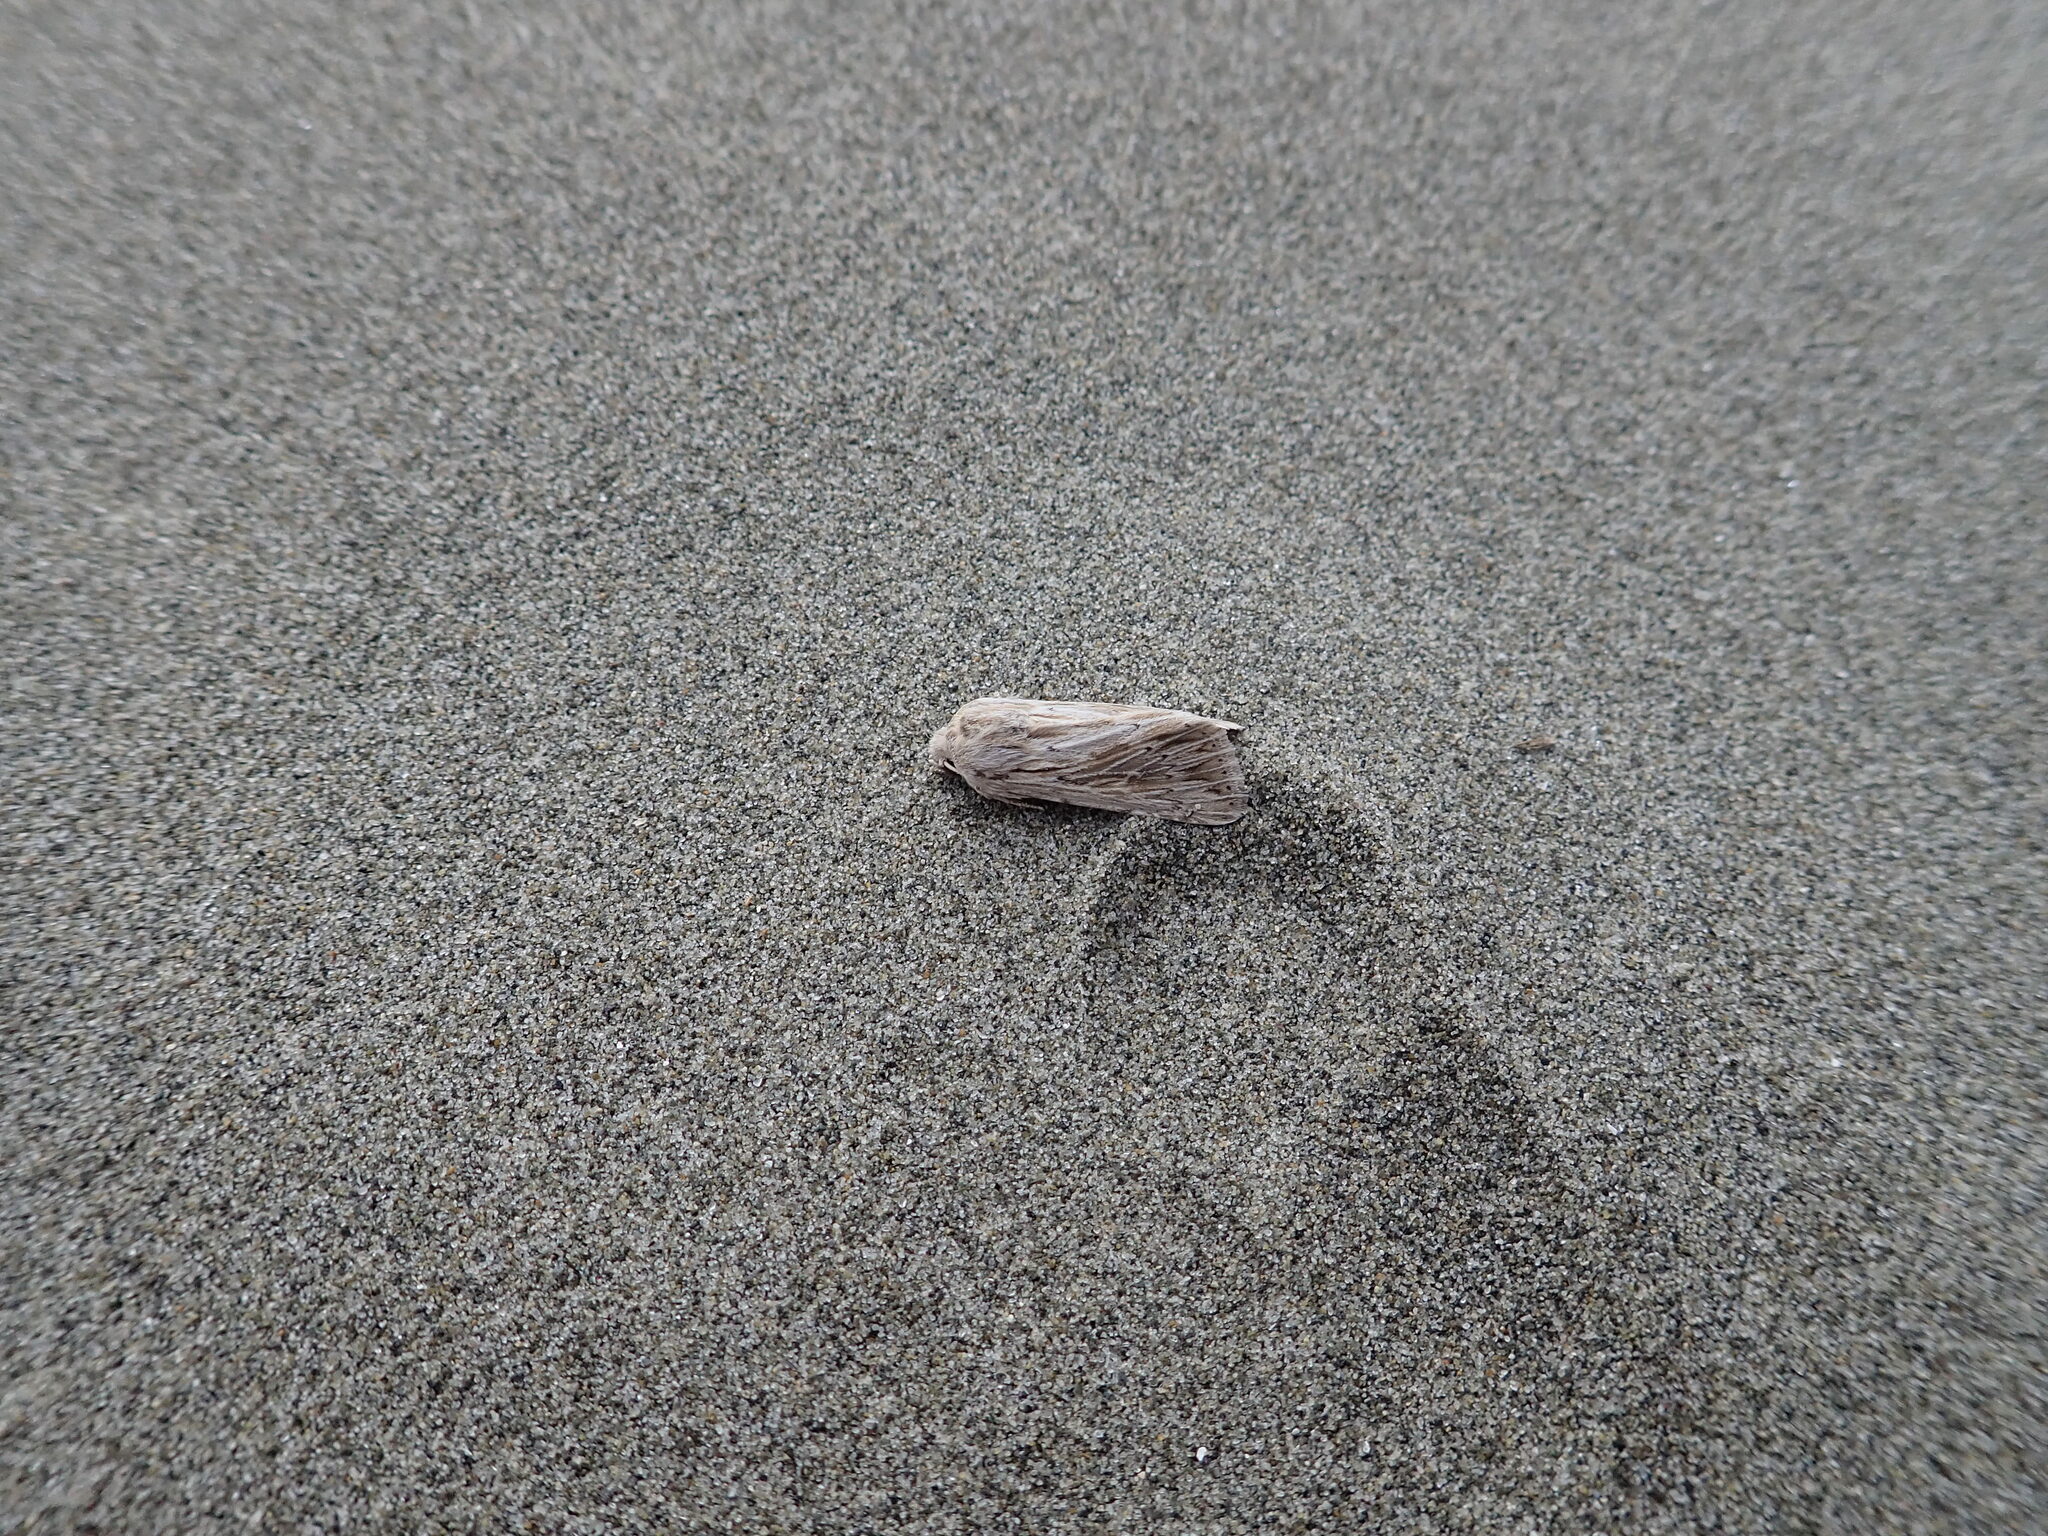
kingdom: Animalia
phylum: Arthropoda
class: Insecta
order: Lepidoptera
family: Noctuidae
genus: Persectania
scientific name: Persectania aversa
